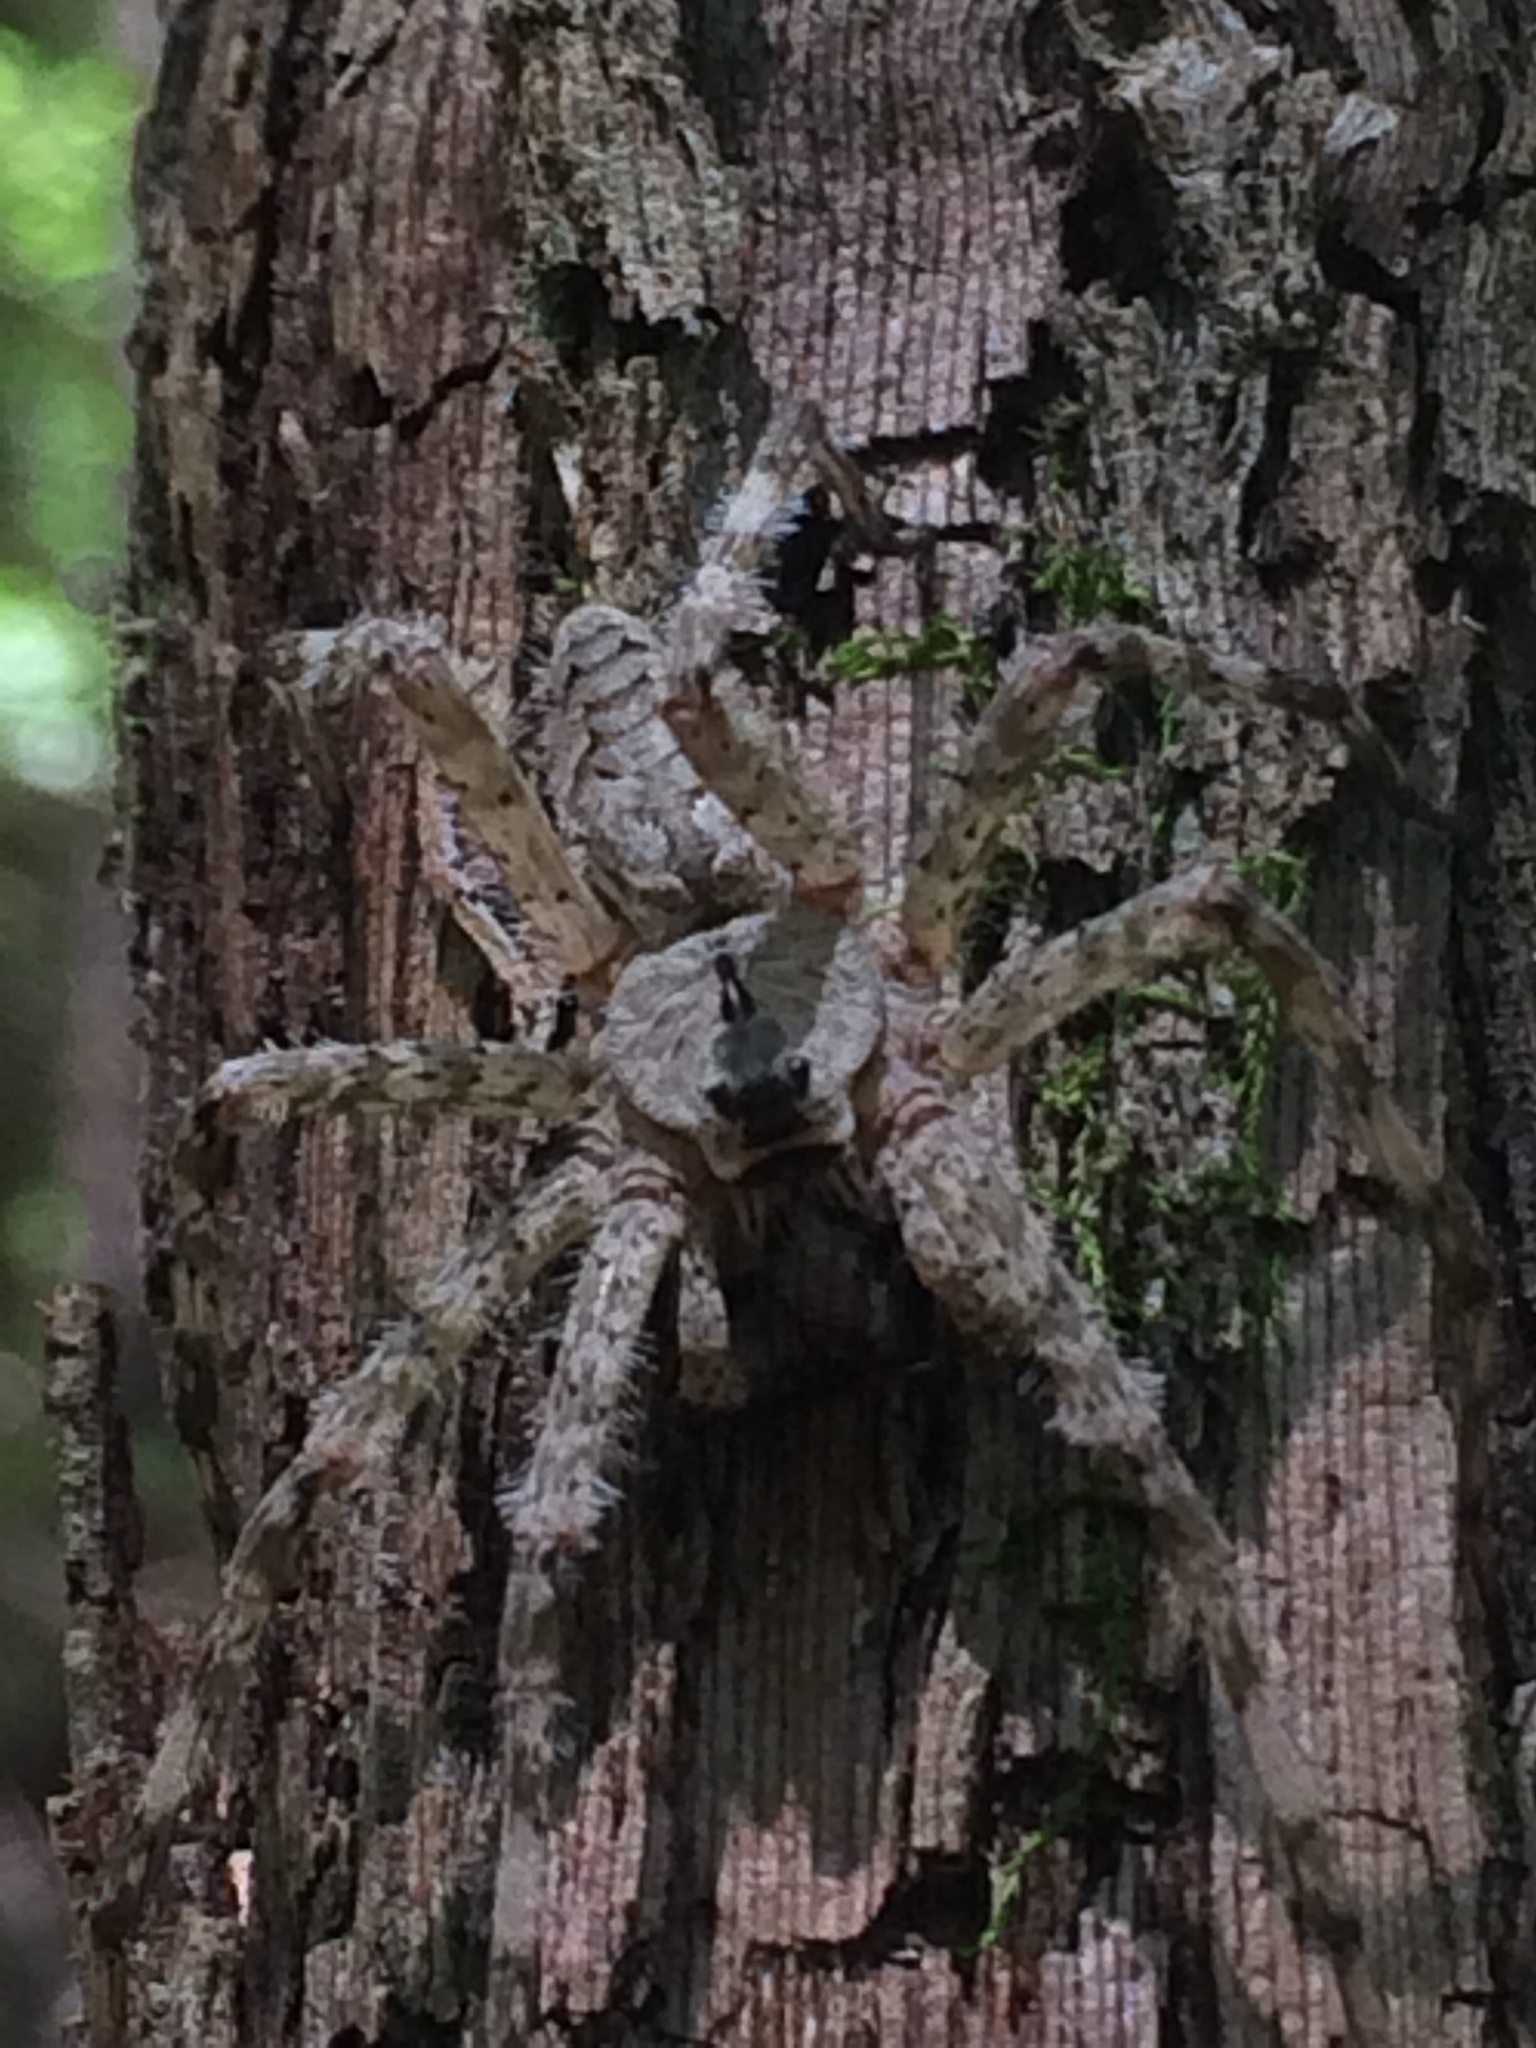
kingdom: Animalia
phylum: Arthropoda
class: Arachnida
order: Araneae
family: Pisauridae
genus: Dolomedes
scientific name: Dolomedes albineus
